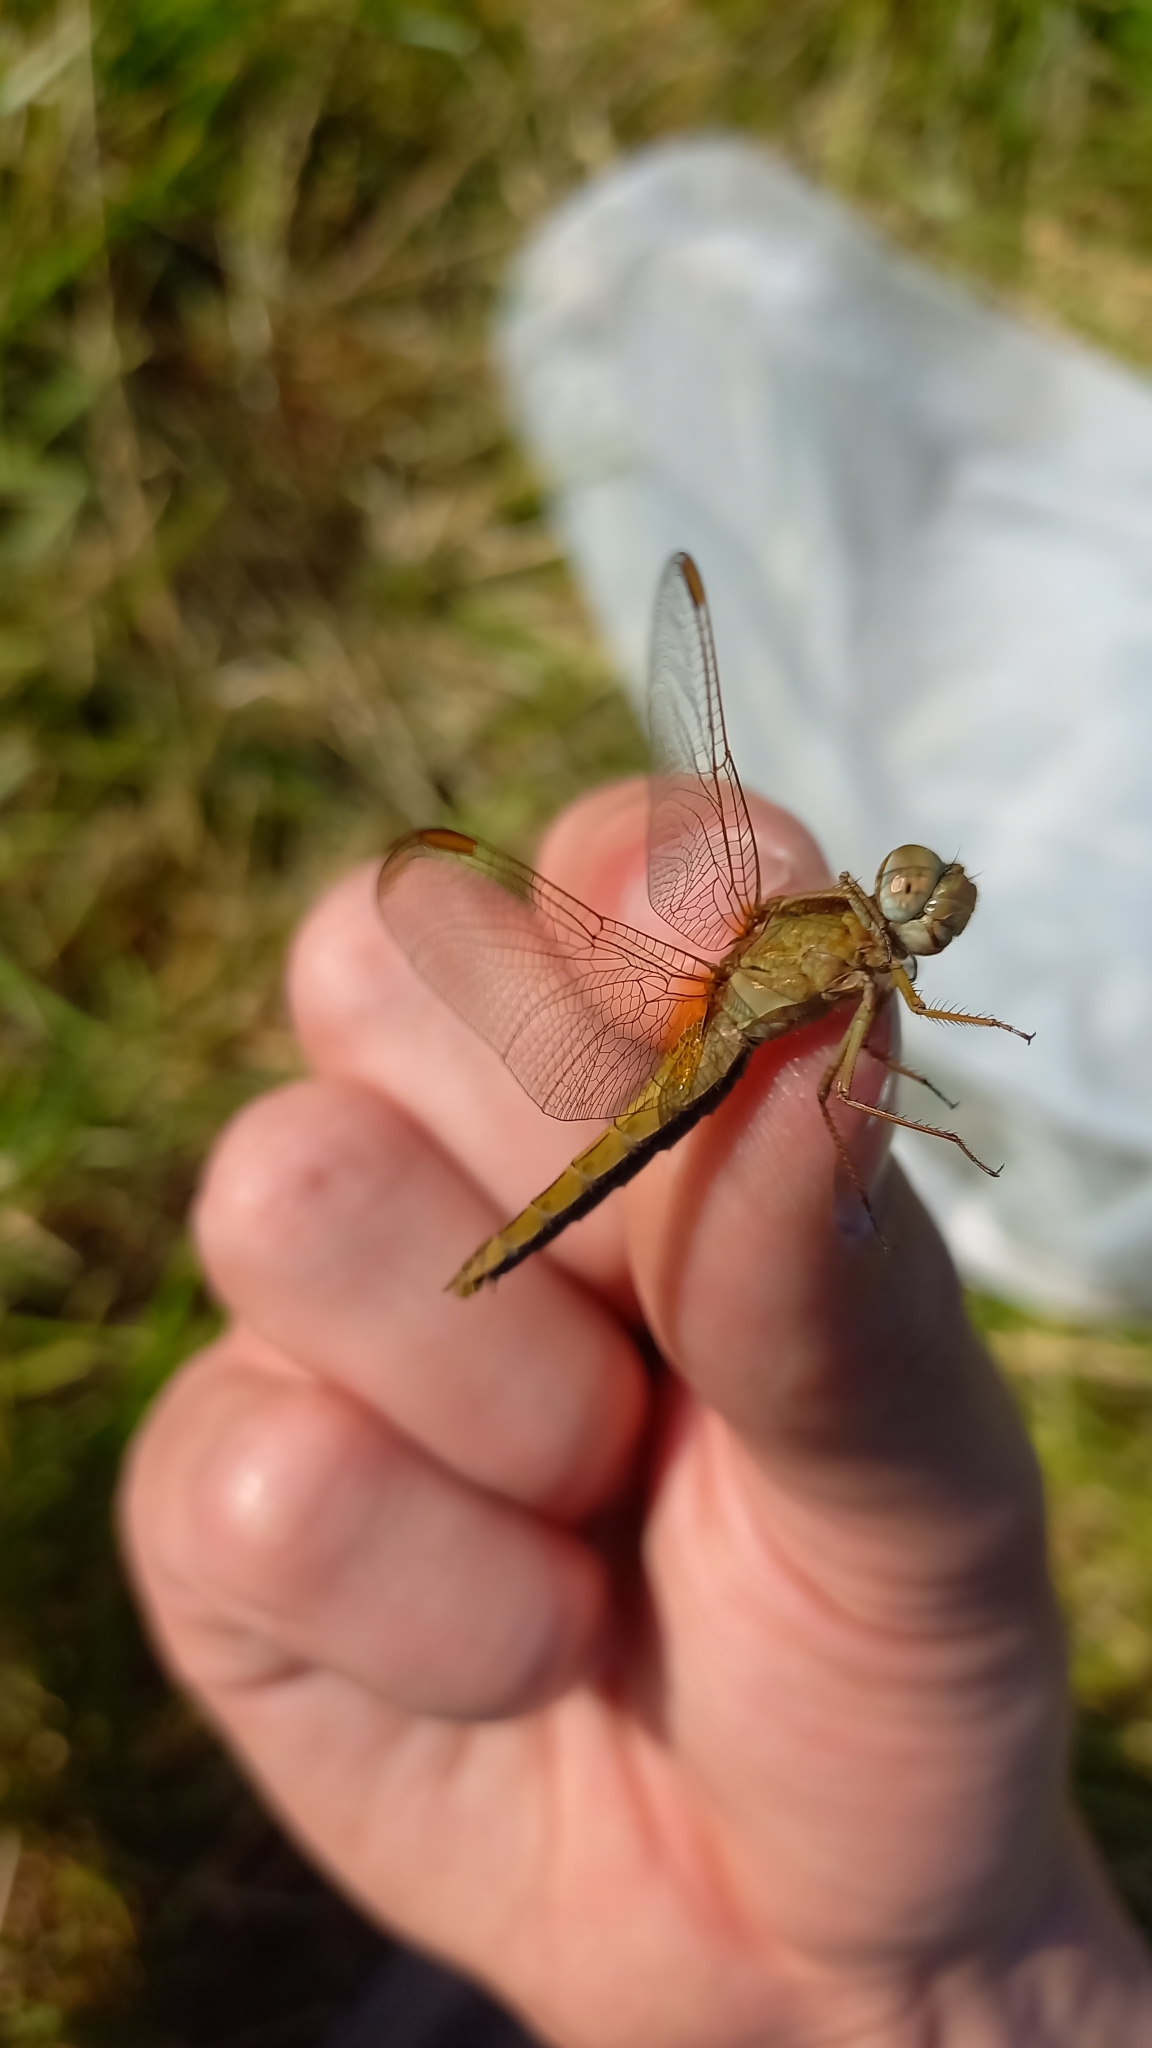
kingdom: Animalia
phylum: Arthropoda
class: Insecta
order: Odonata
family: Libellulidae
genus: Crocothemis
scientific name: Crocothemis erythraea
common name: Scarlet dragonfly
